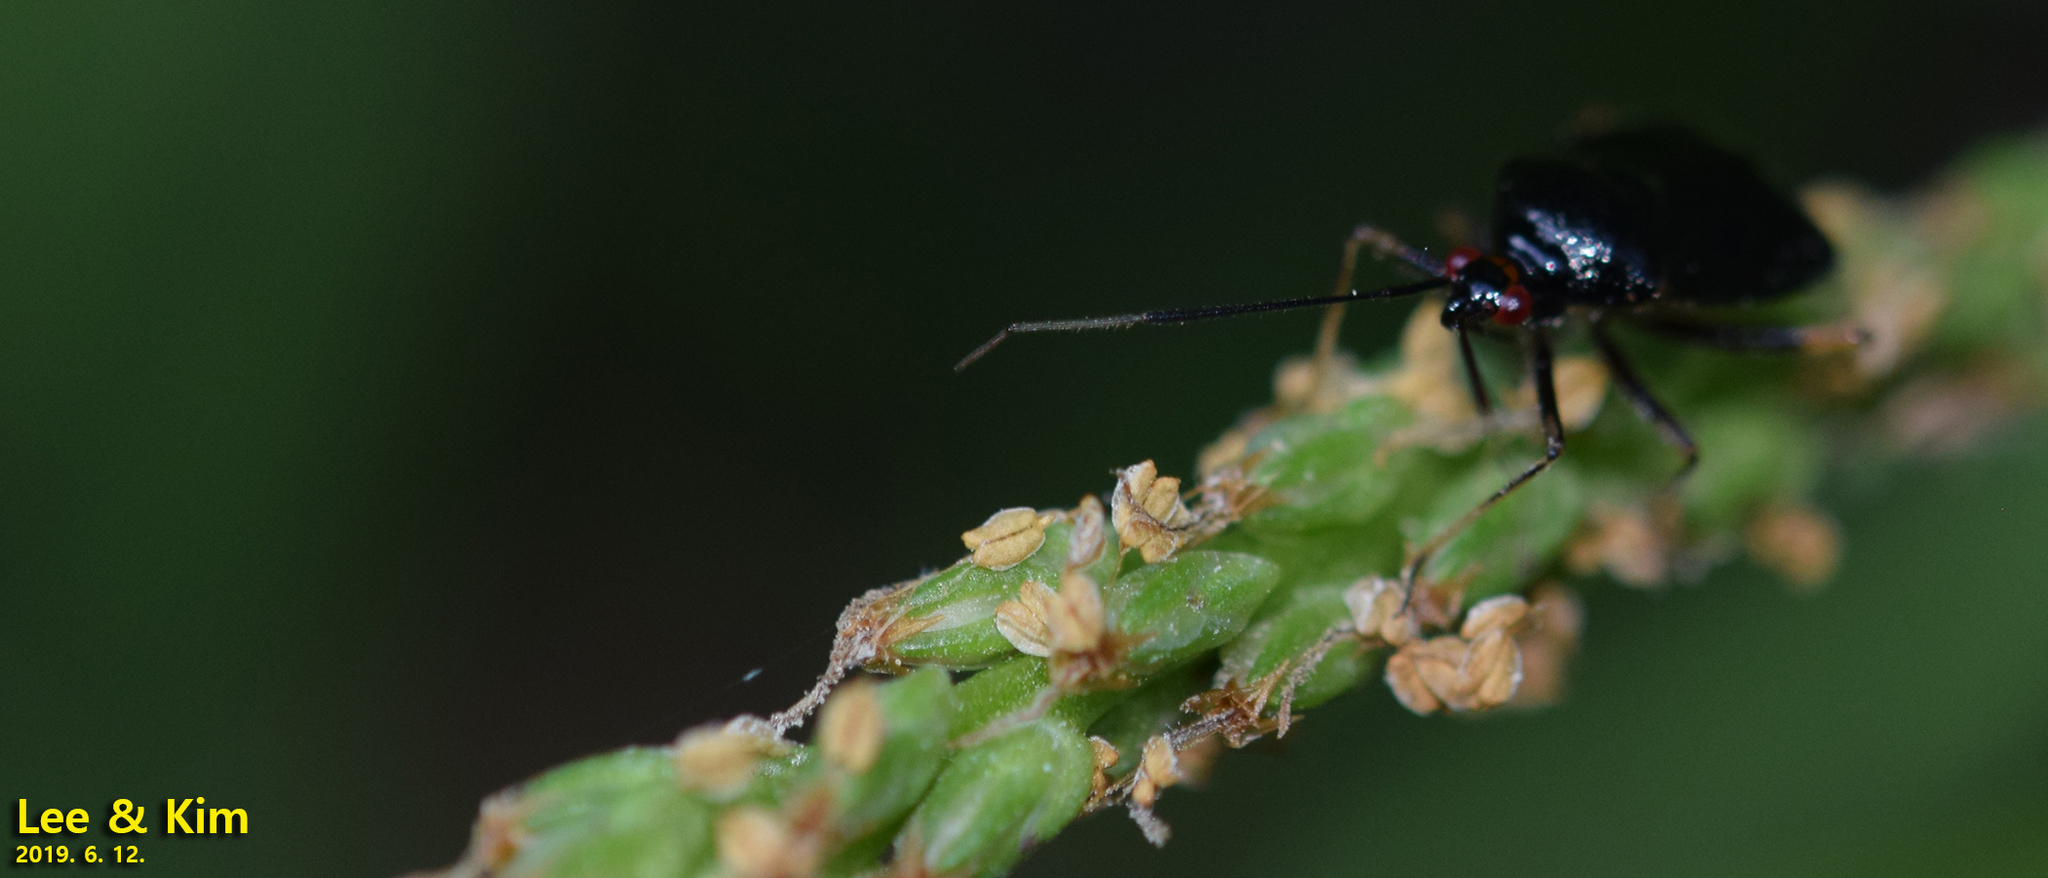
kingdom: Animalia
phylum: Arthropoda
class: Insecta
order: Hemiptera
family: Miridae
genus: Deraeocoris
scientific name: Deraeocoris ater
